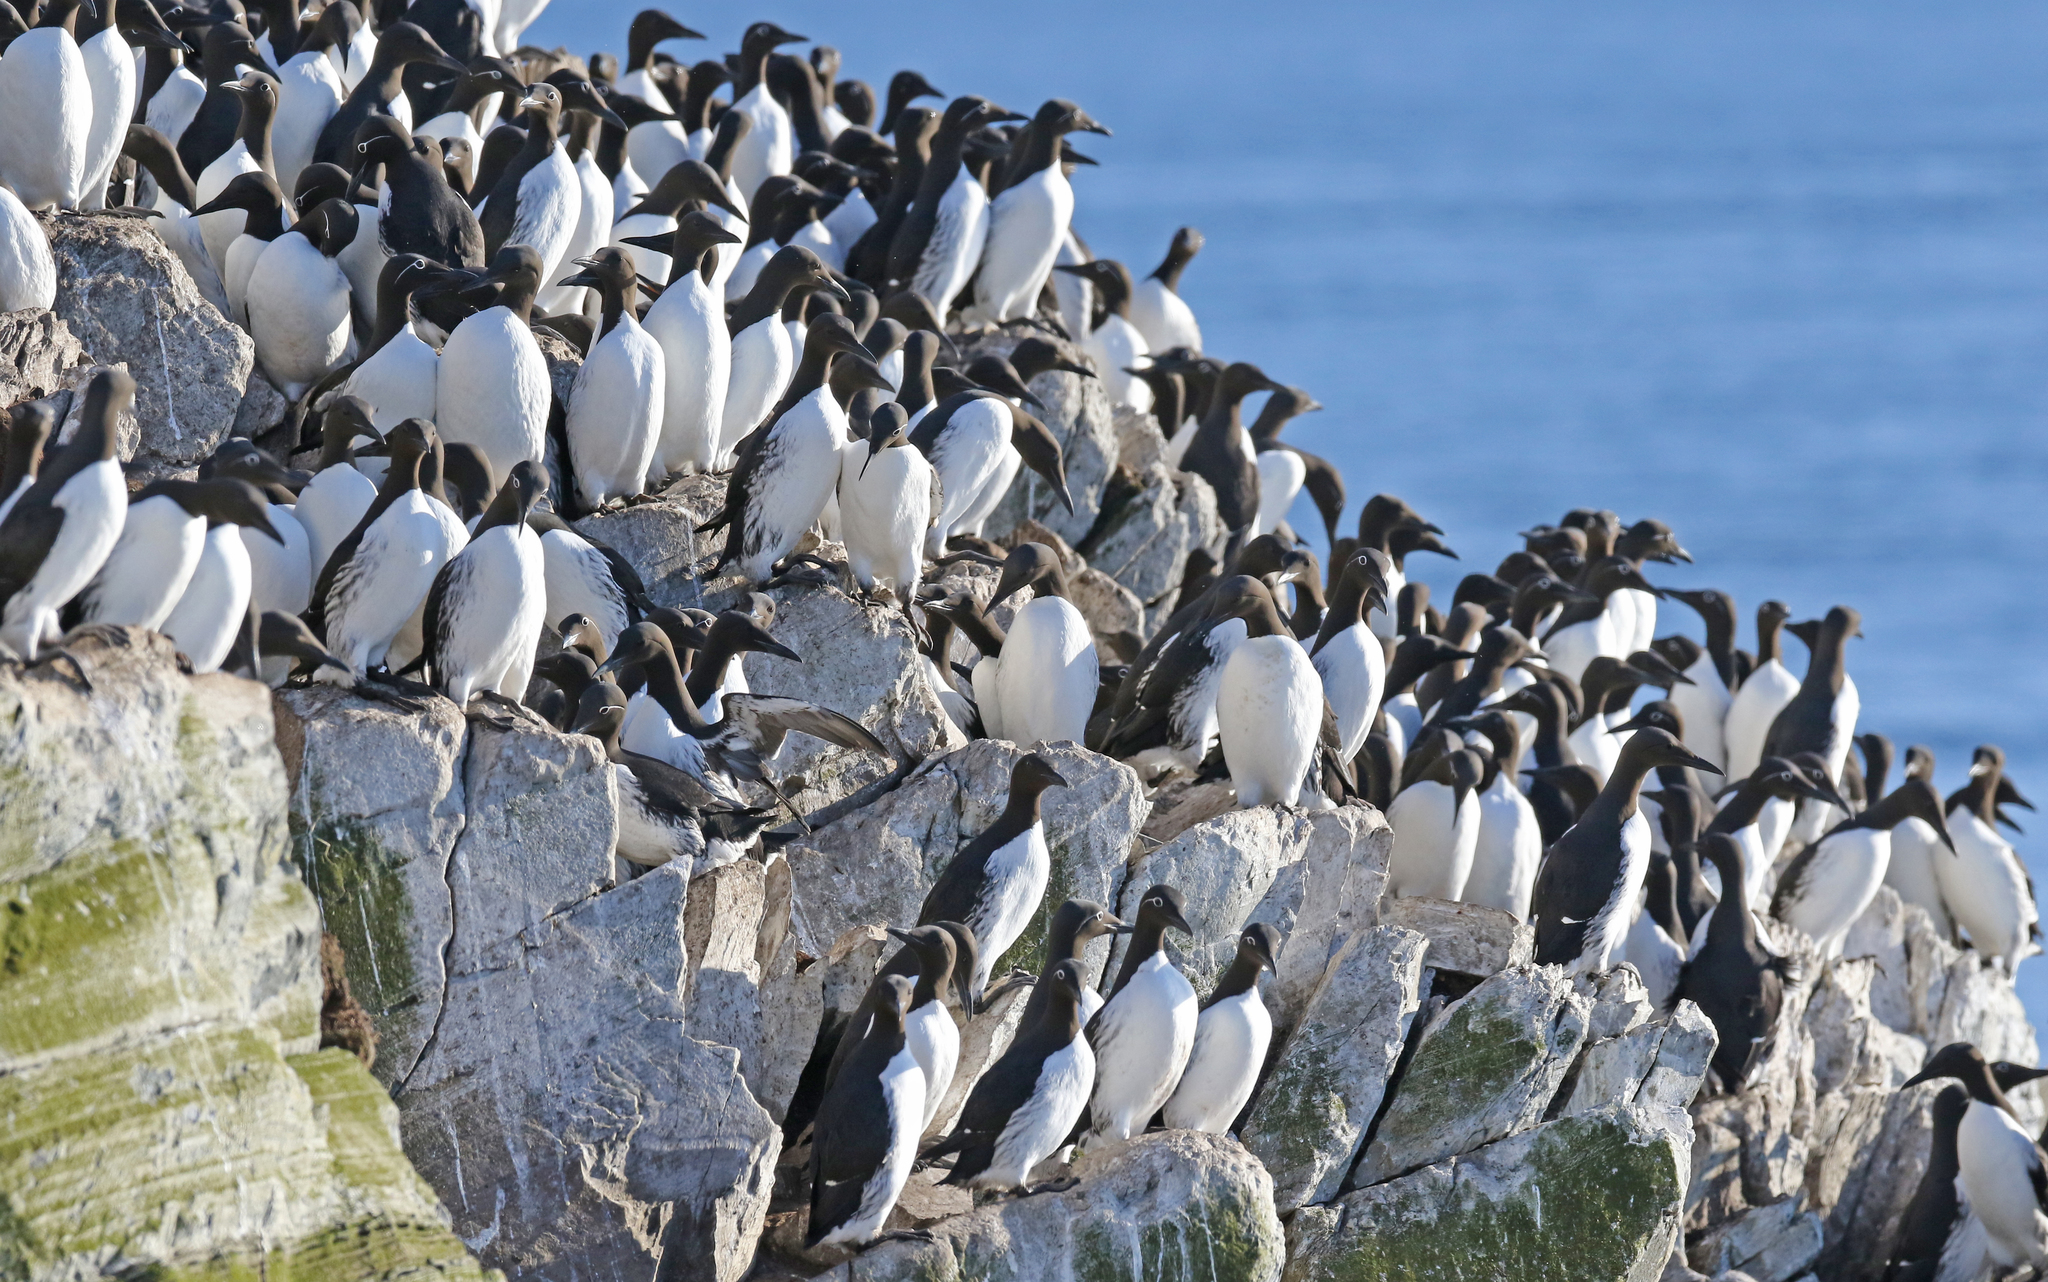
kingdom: Animalia
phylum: Chordata
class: Aves
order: Charadriiformes
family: Alcidae
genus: Uria
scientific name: Uria aalge
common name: Common murre
